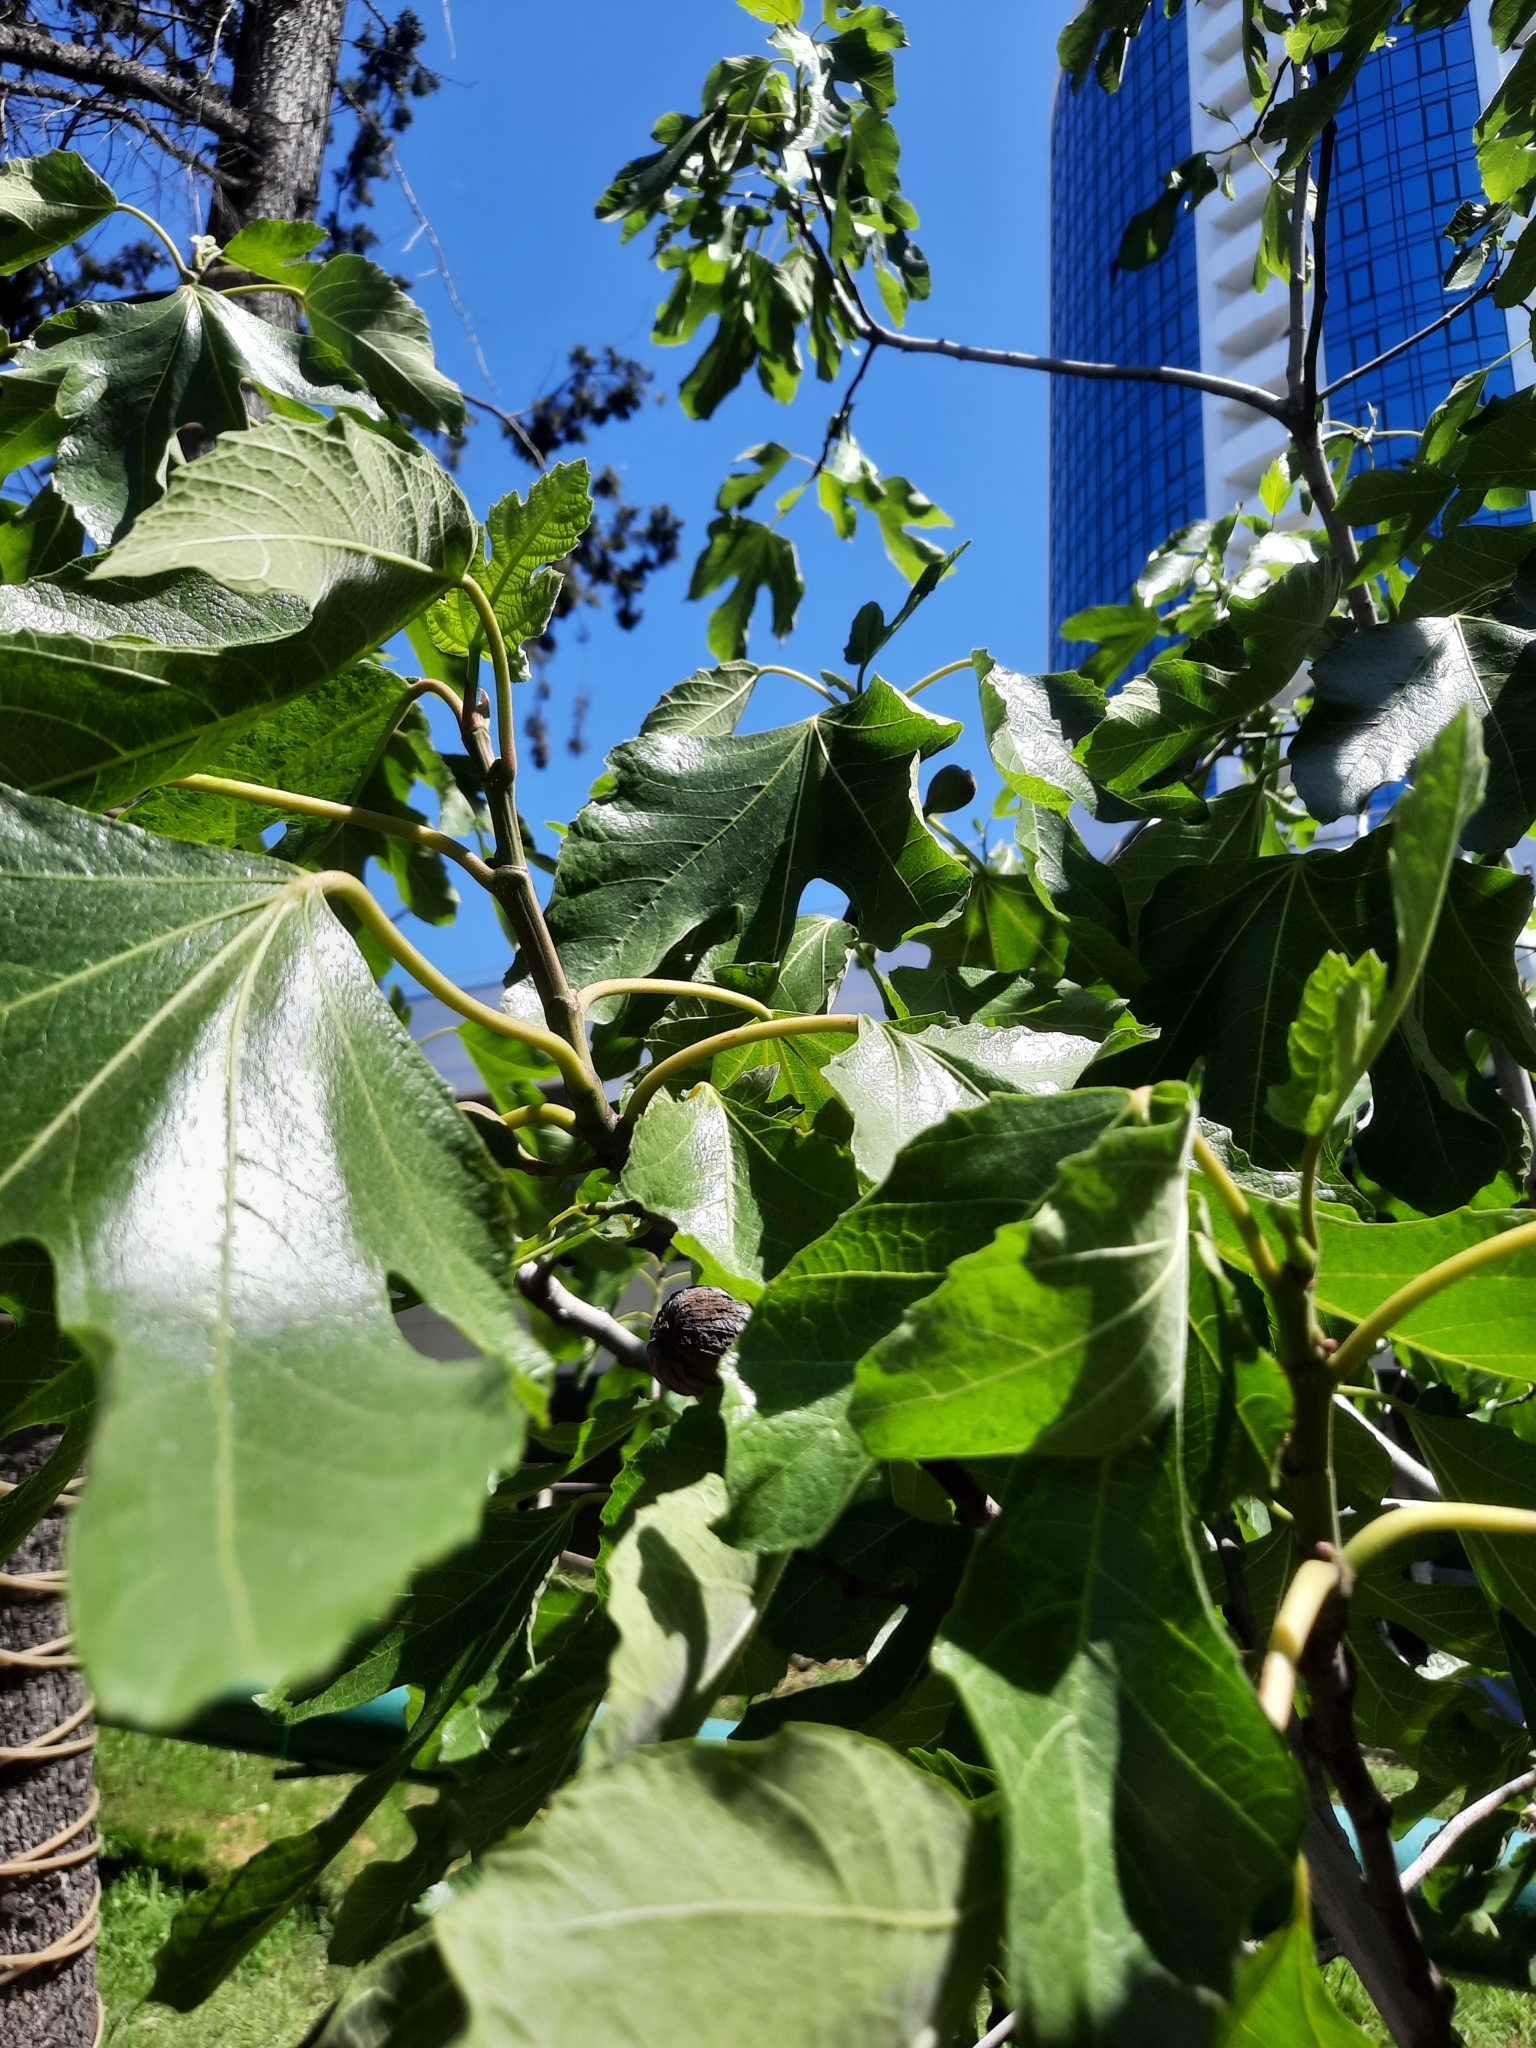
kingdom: Plantae
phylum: Tracheophyta
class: Magnoliopsida
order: Rosales
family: Moraceae
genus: Ficus
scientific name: Ficus carica
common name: Fig
